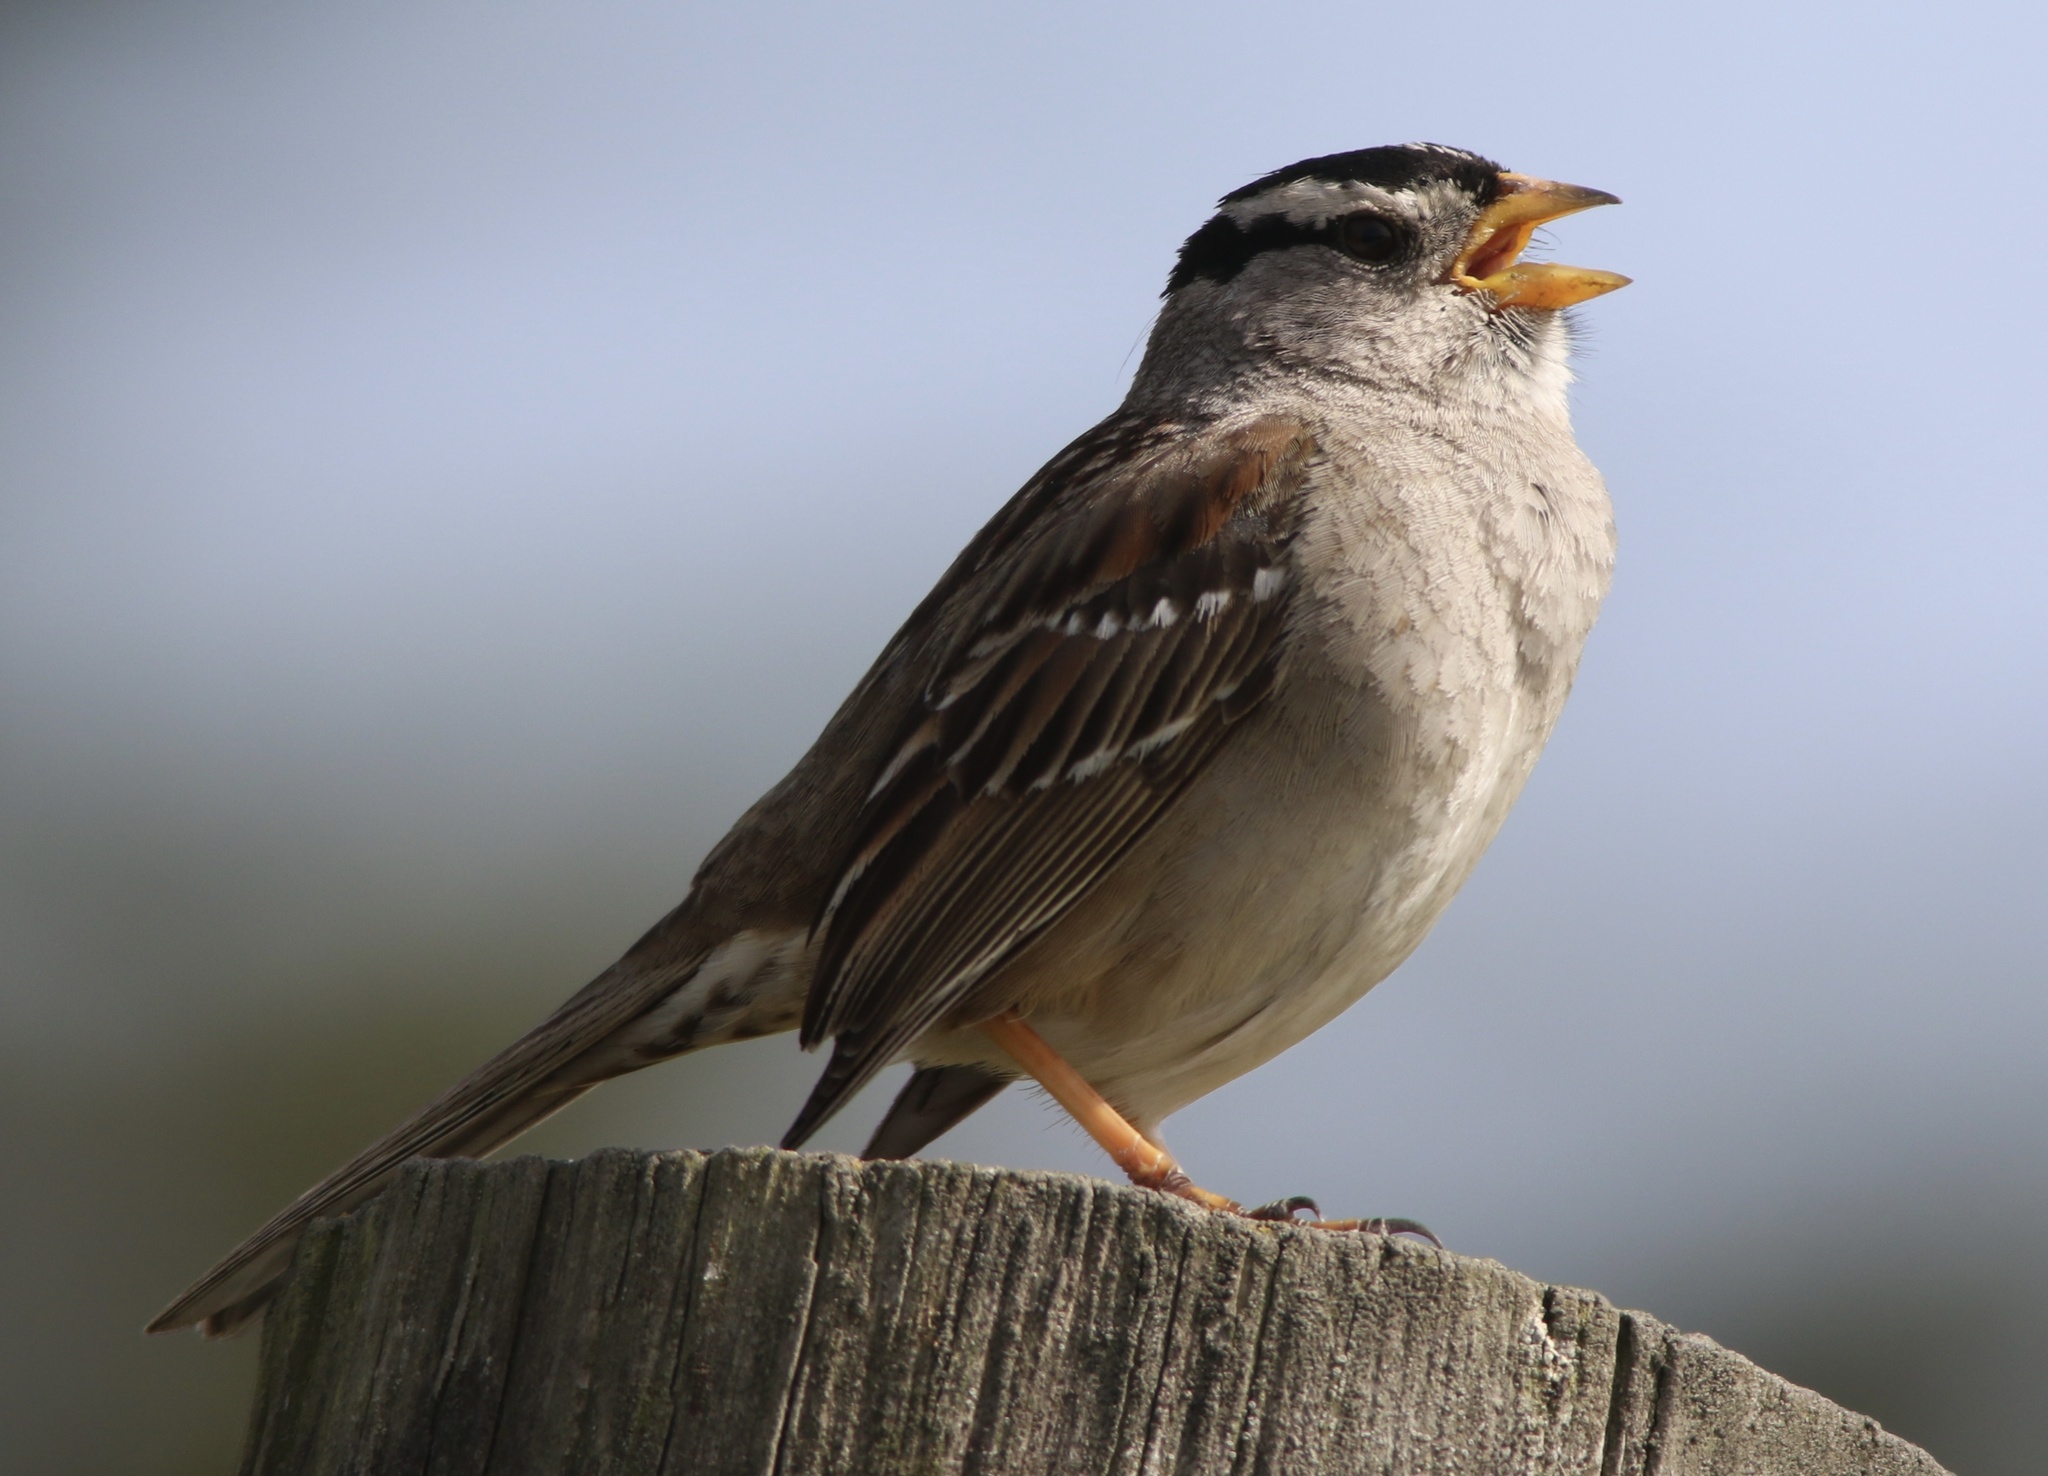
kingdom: Animalia
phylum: Chordata
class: Aves
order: Passeriformes
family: Passerellidae
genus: Zonotrichia
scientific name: Zonotrichia leucophrys
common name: White-crowned sparrow
